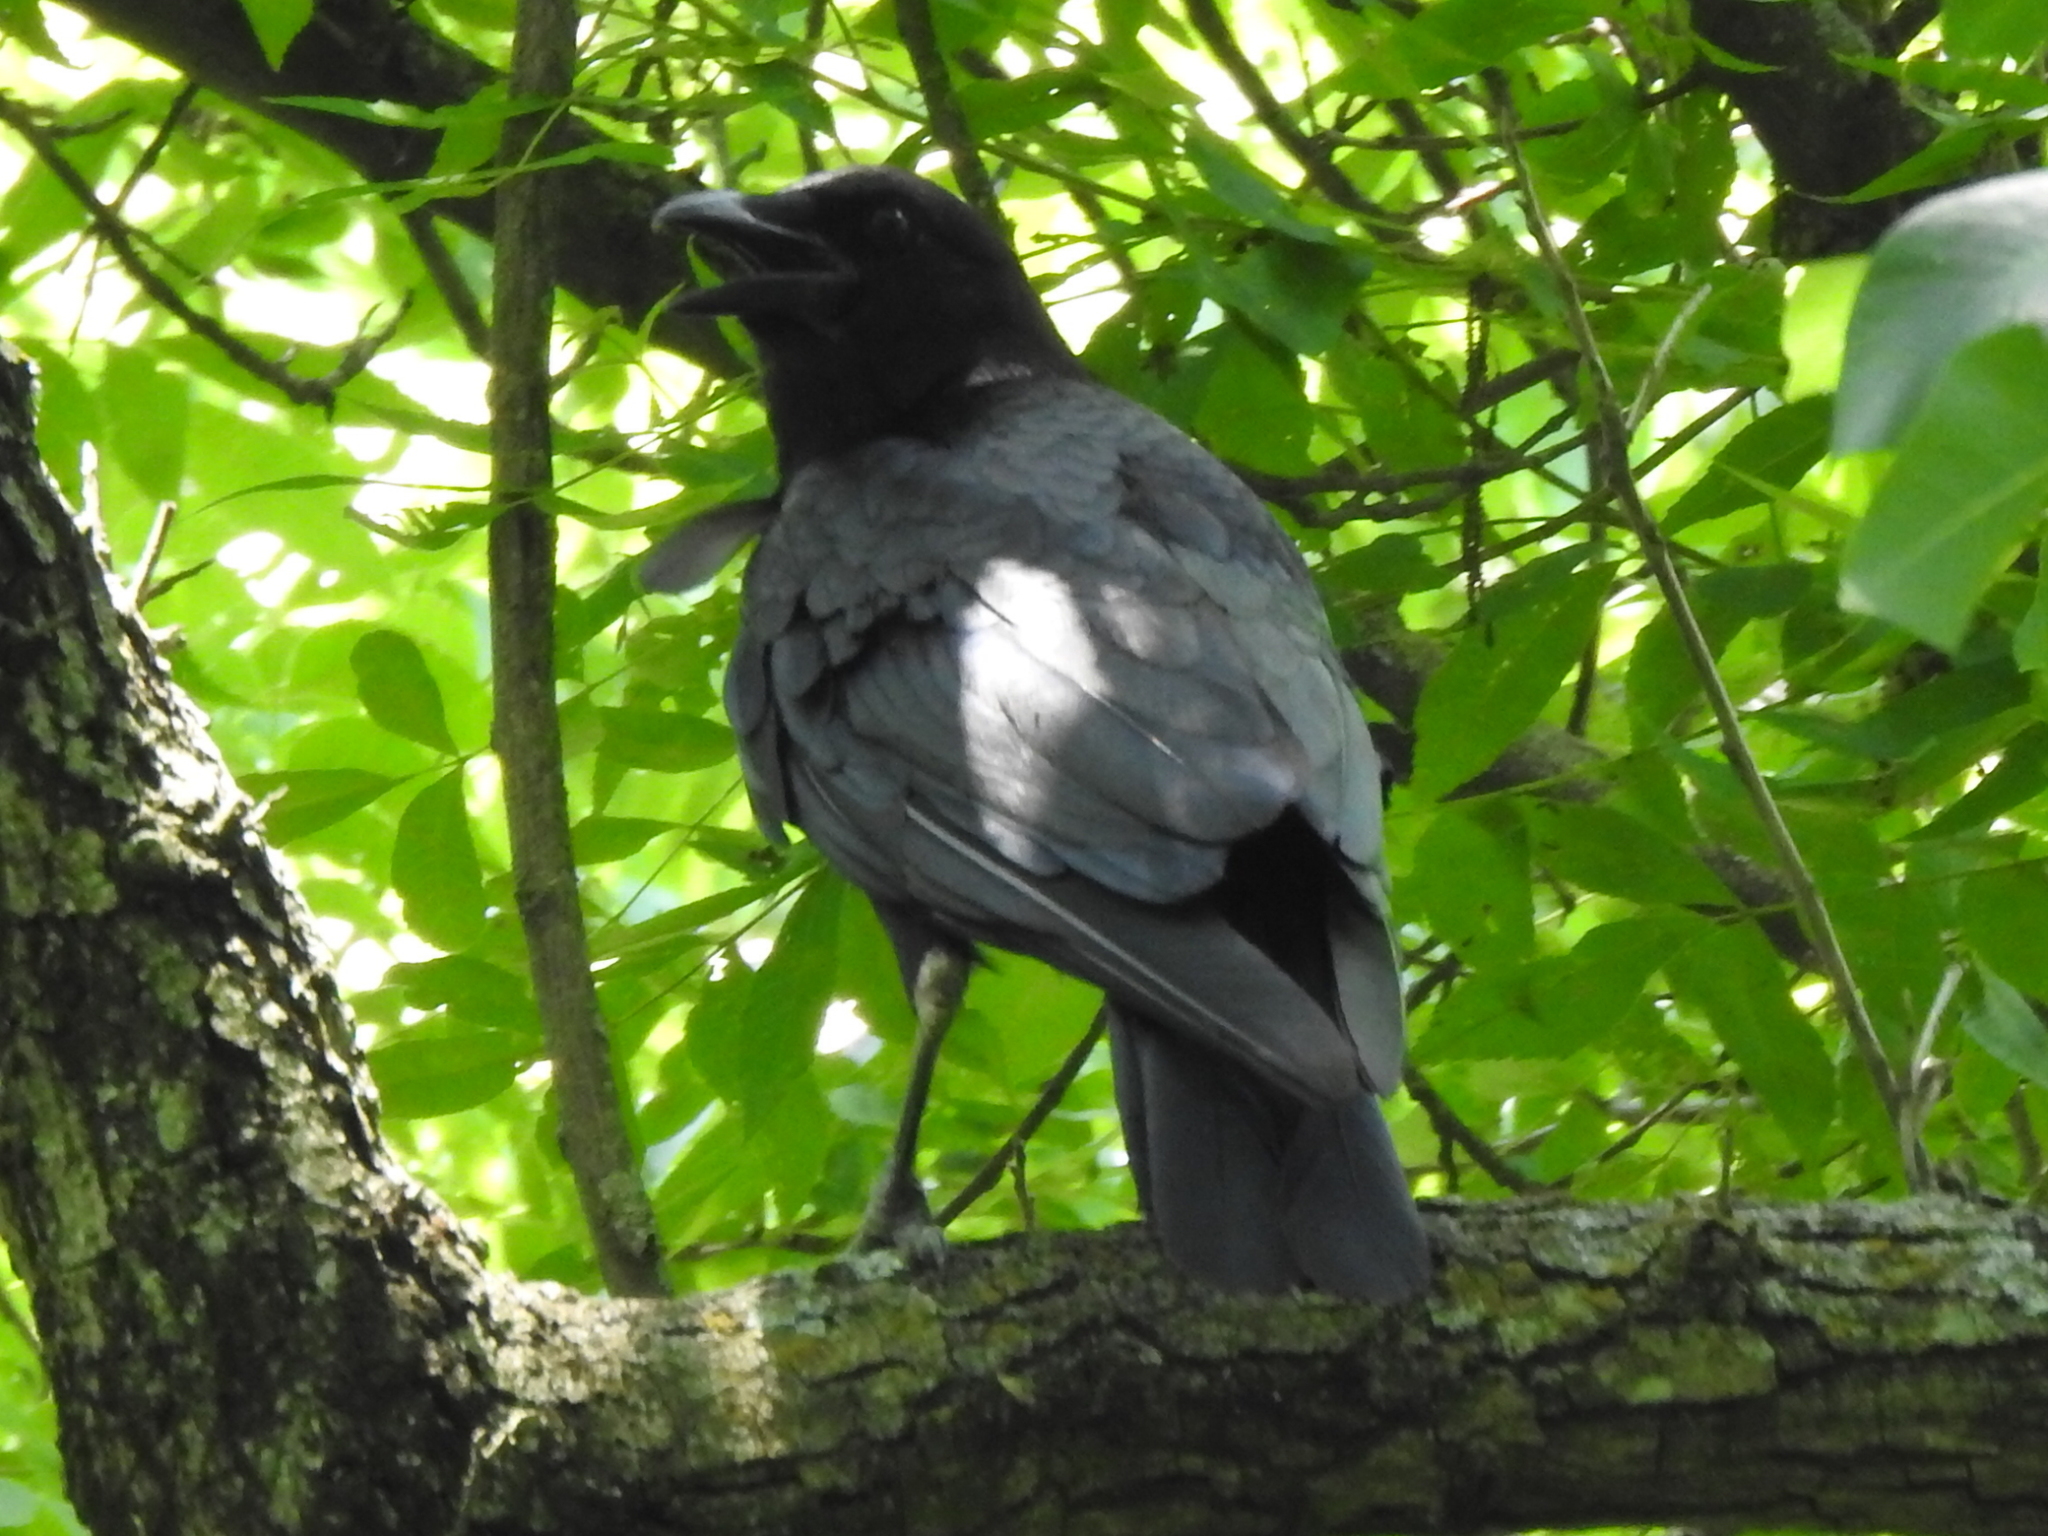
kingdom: Animalia
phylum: Chordata
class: Aves
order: Passeriformes
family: Corvidae
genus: Corvus
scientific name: Corvus brachyrhynchos
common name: American crow
